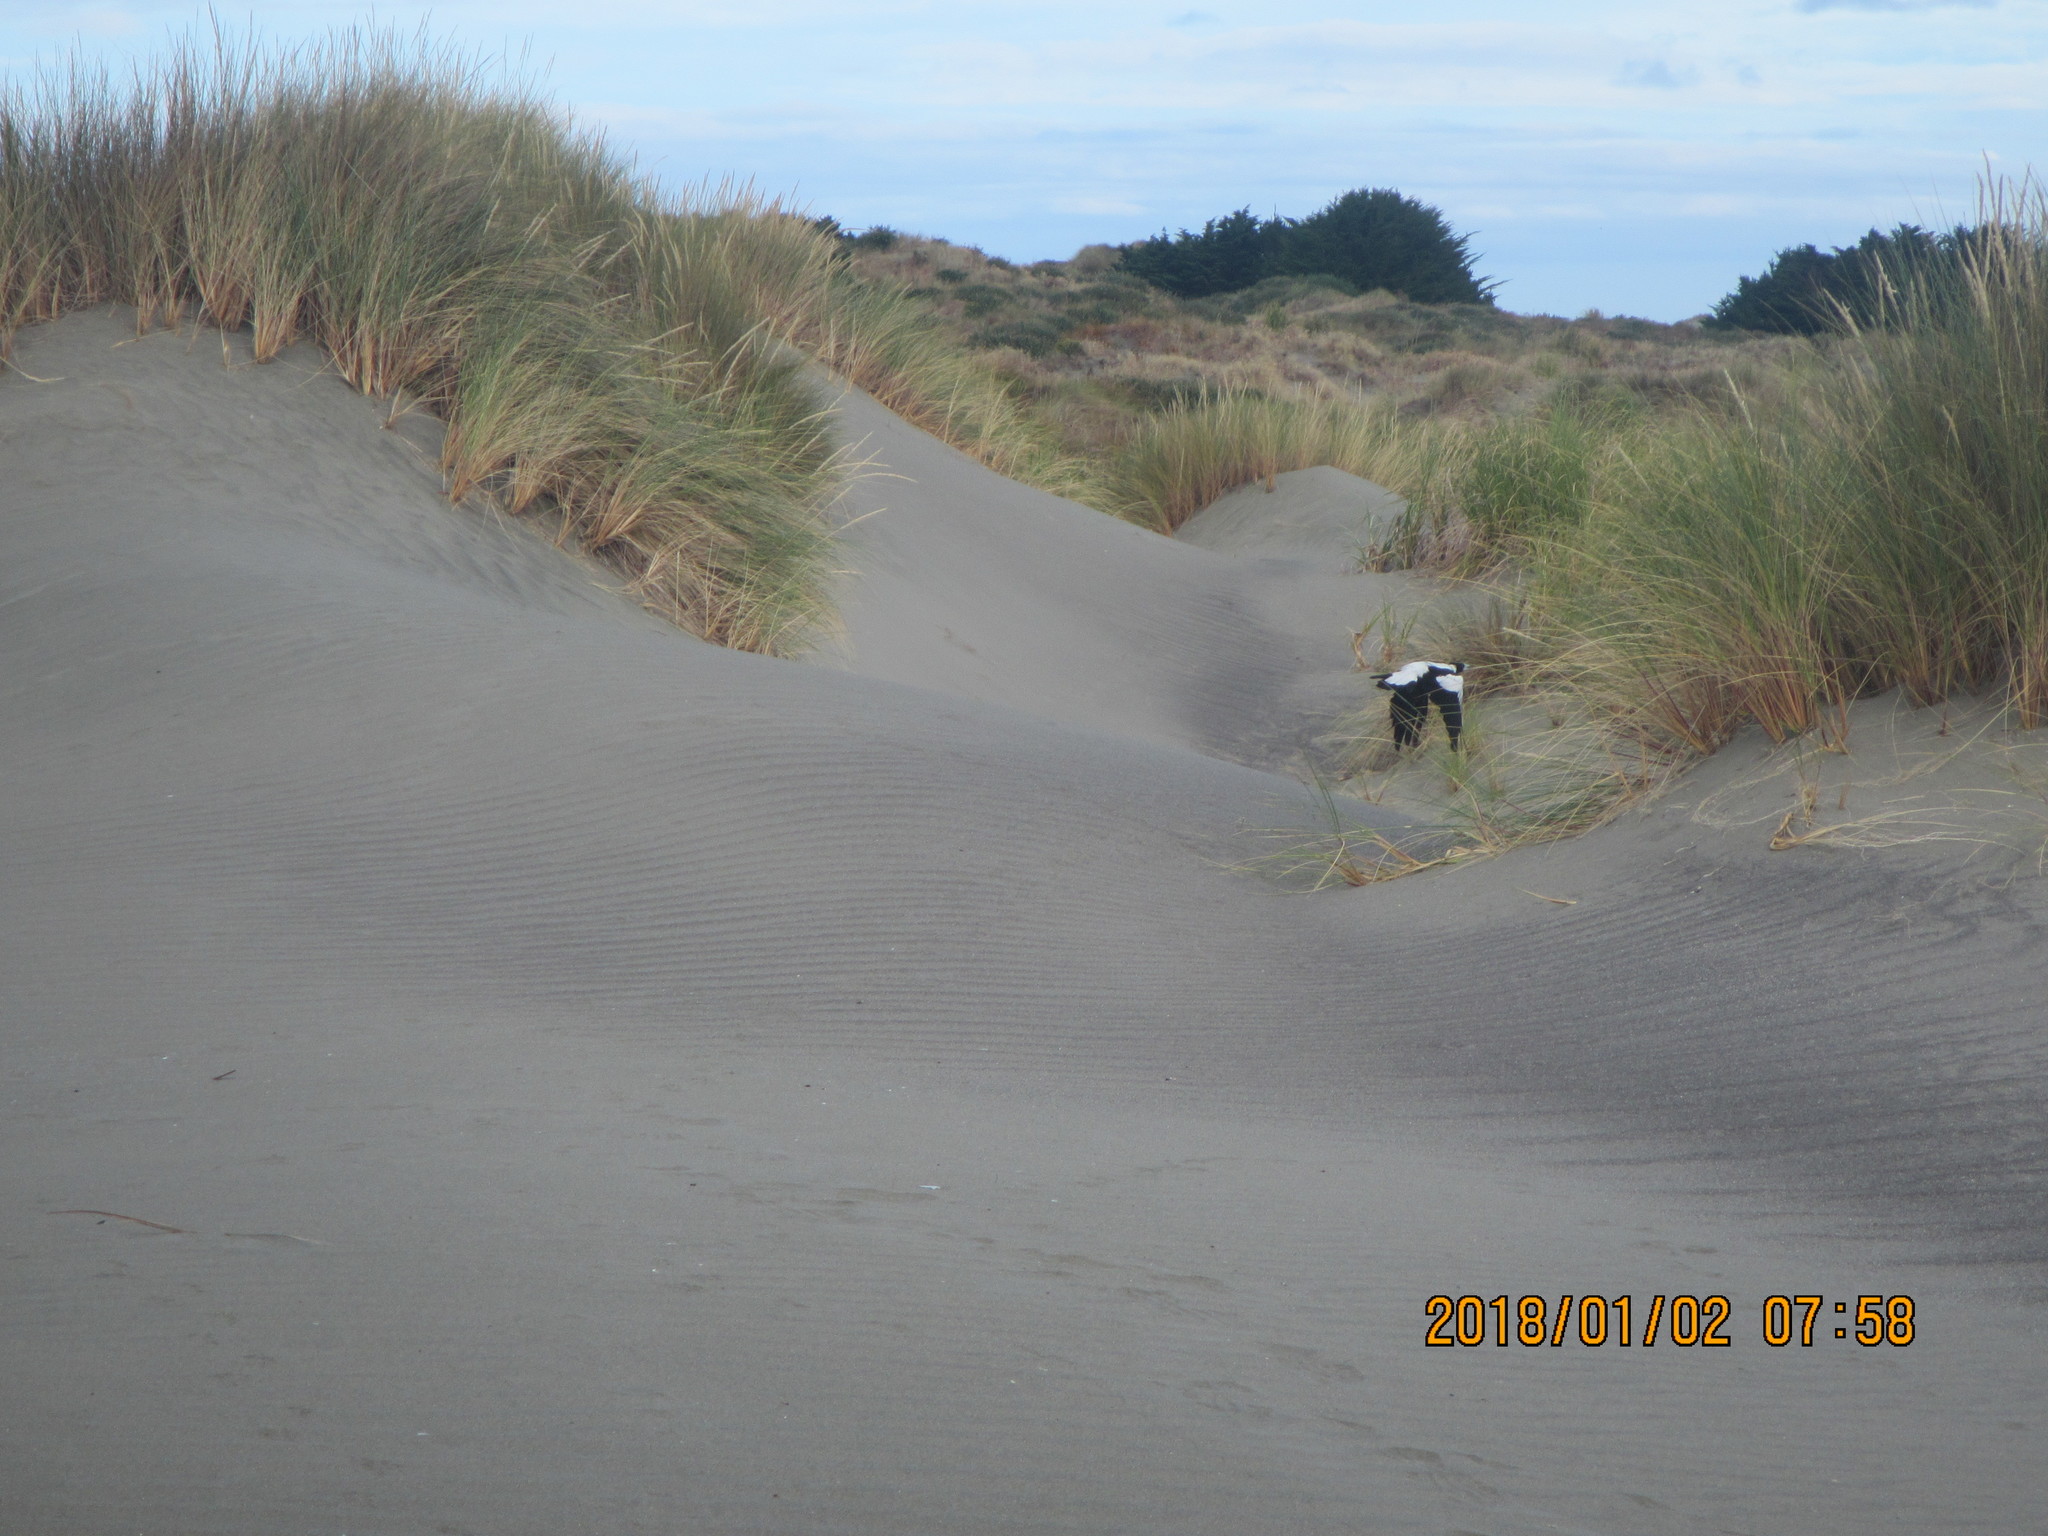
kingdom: Animalia
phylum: Chordata
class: Aves
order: Passeriformes
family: Cracticidae
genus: Gymnorhina
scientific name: Gymnorhina tibicen
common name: Australian magpie
